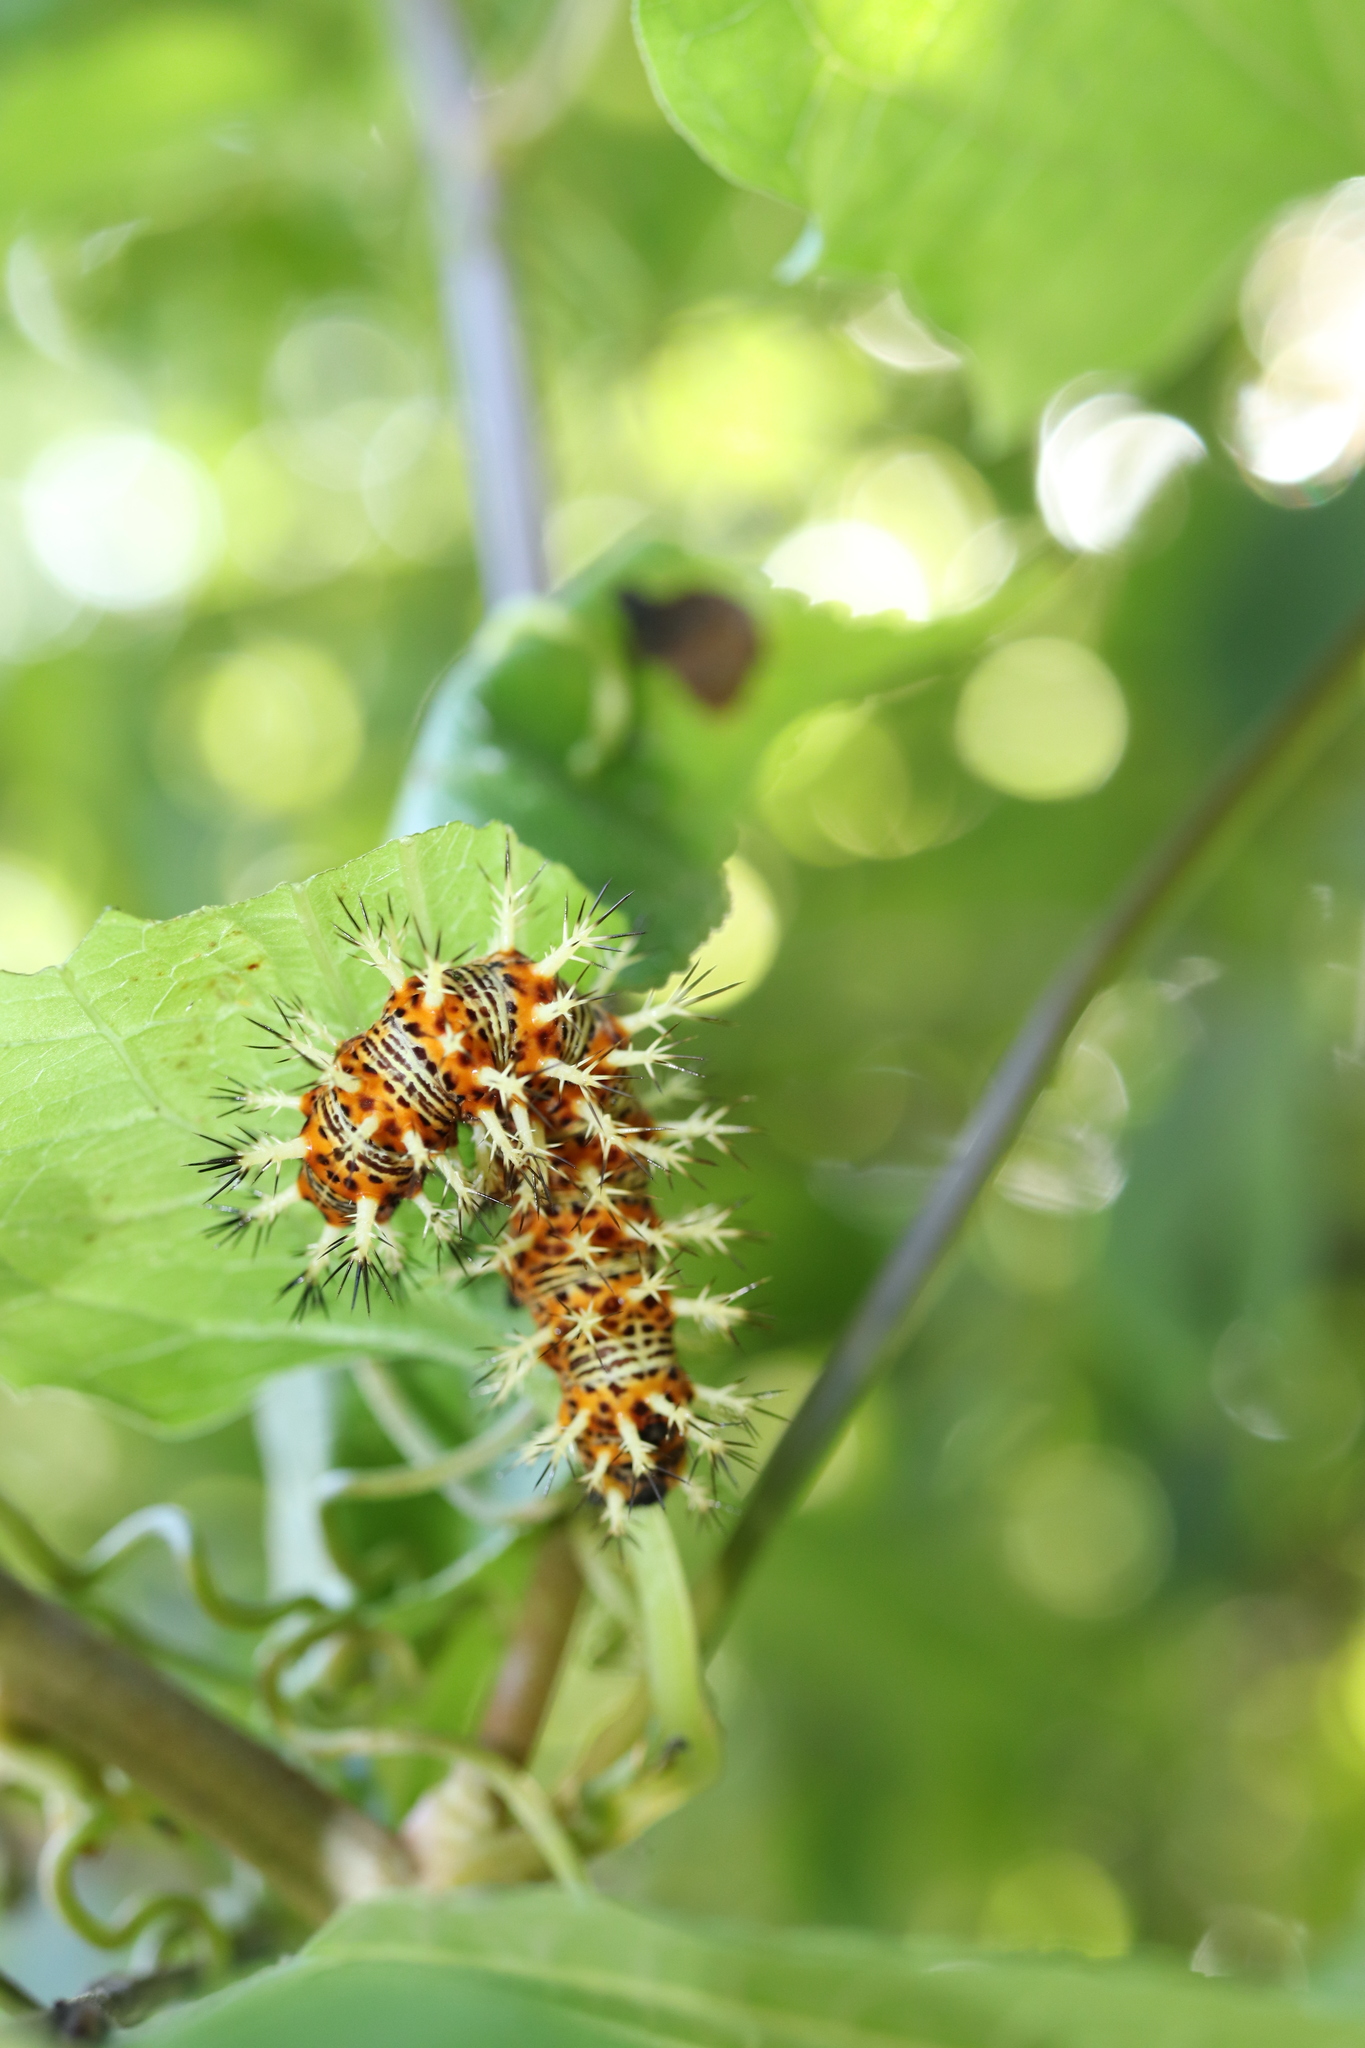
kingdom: Animalia
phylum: Arthropoda
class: Insecta
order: Lepidoptera
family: Nymphalidae
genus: Vanessa
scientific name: Vanessa Kaniska canace
